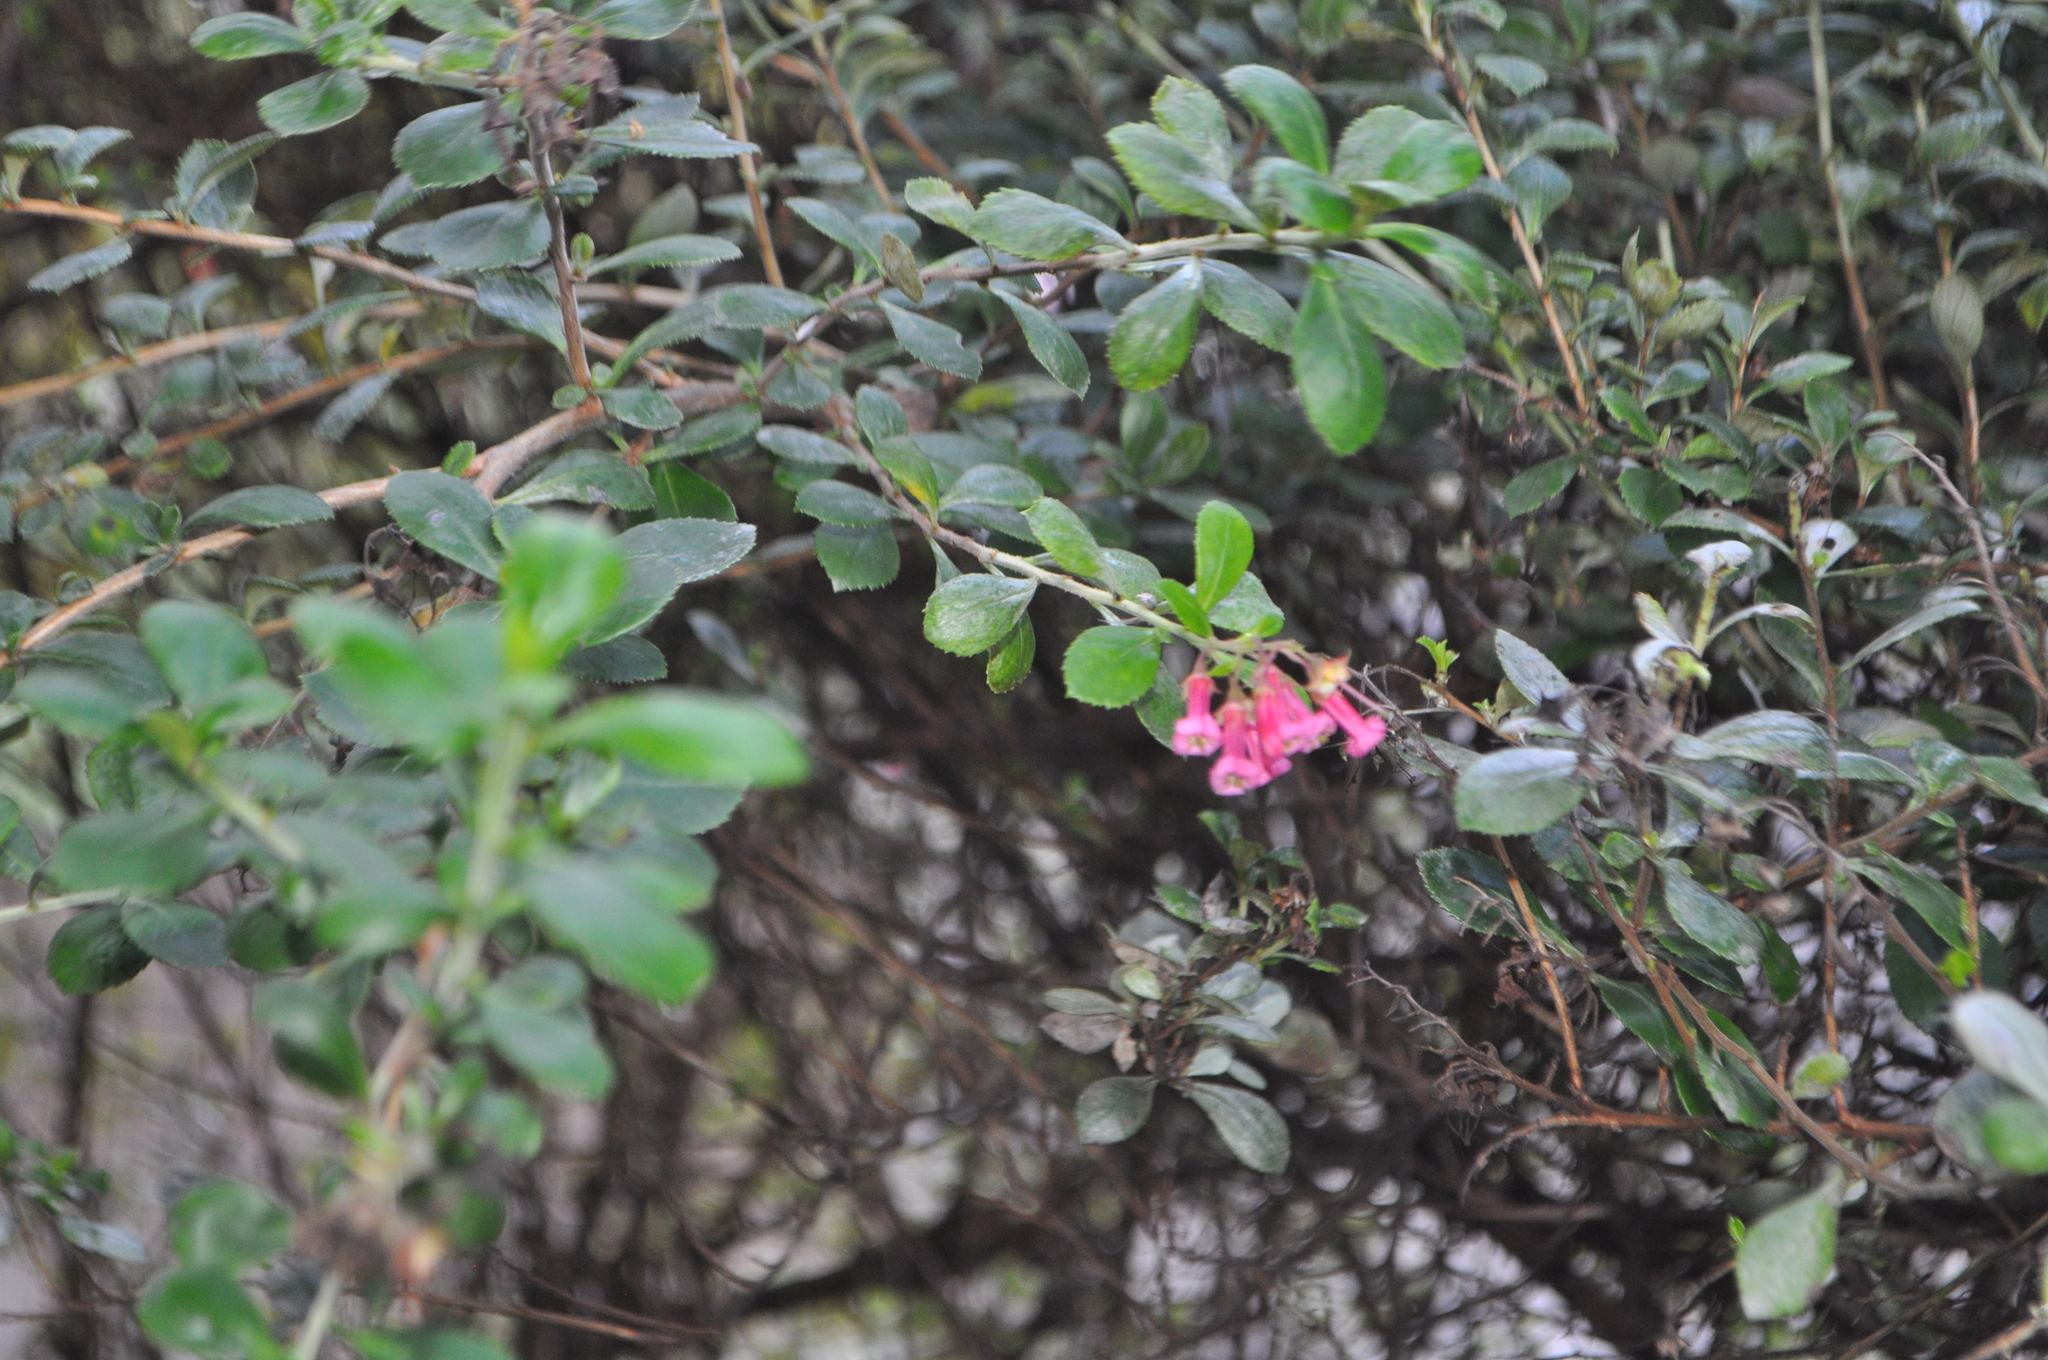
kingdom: Plantae
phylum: Tracheophyta
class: Magnoliopsida
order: Escalloniales
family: Escalloniaceae
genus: Escallonia
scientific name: Escallonia rubra
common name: Redclaws
